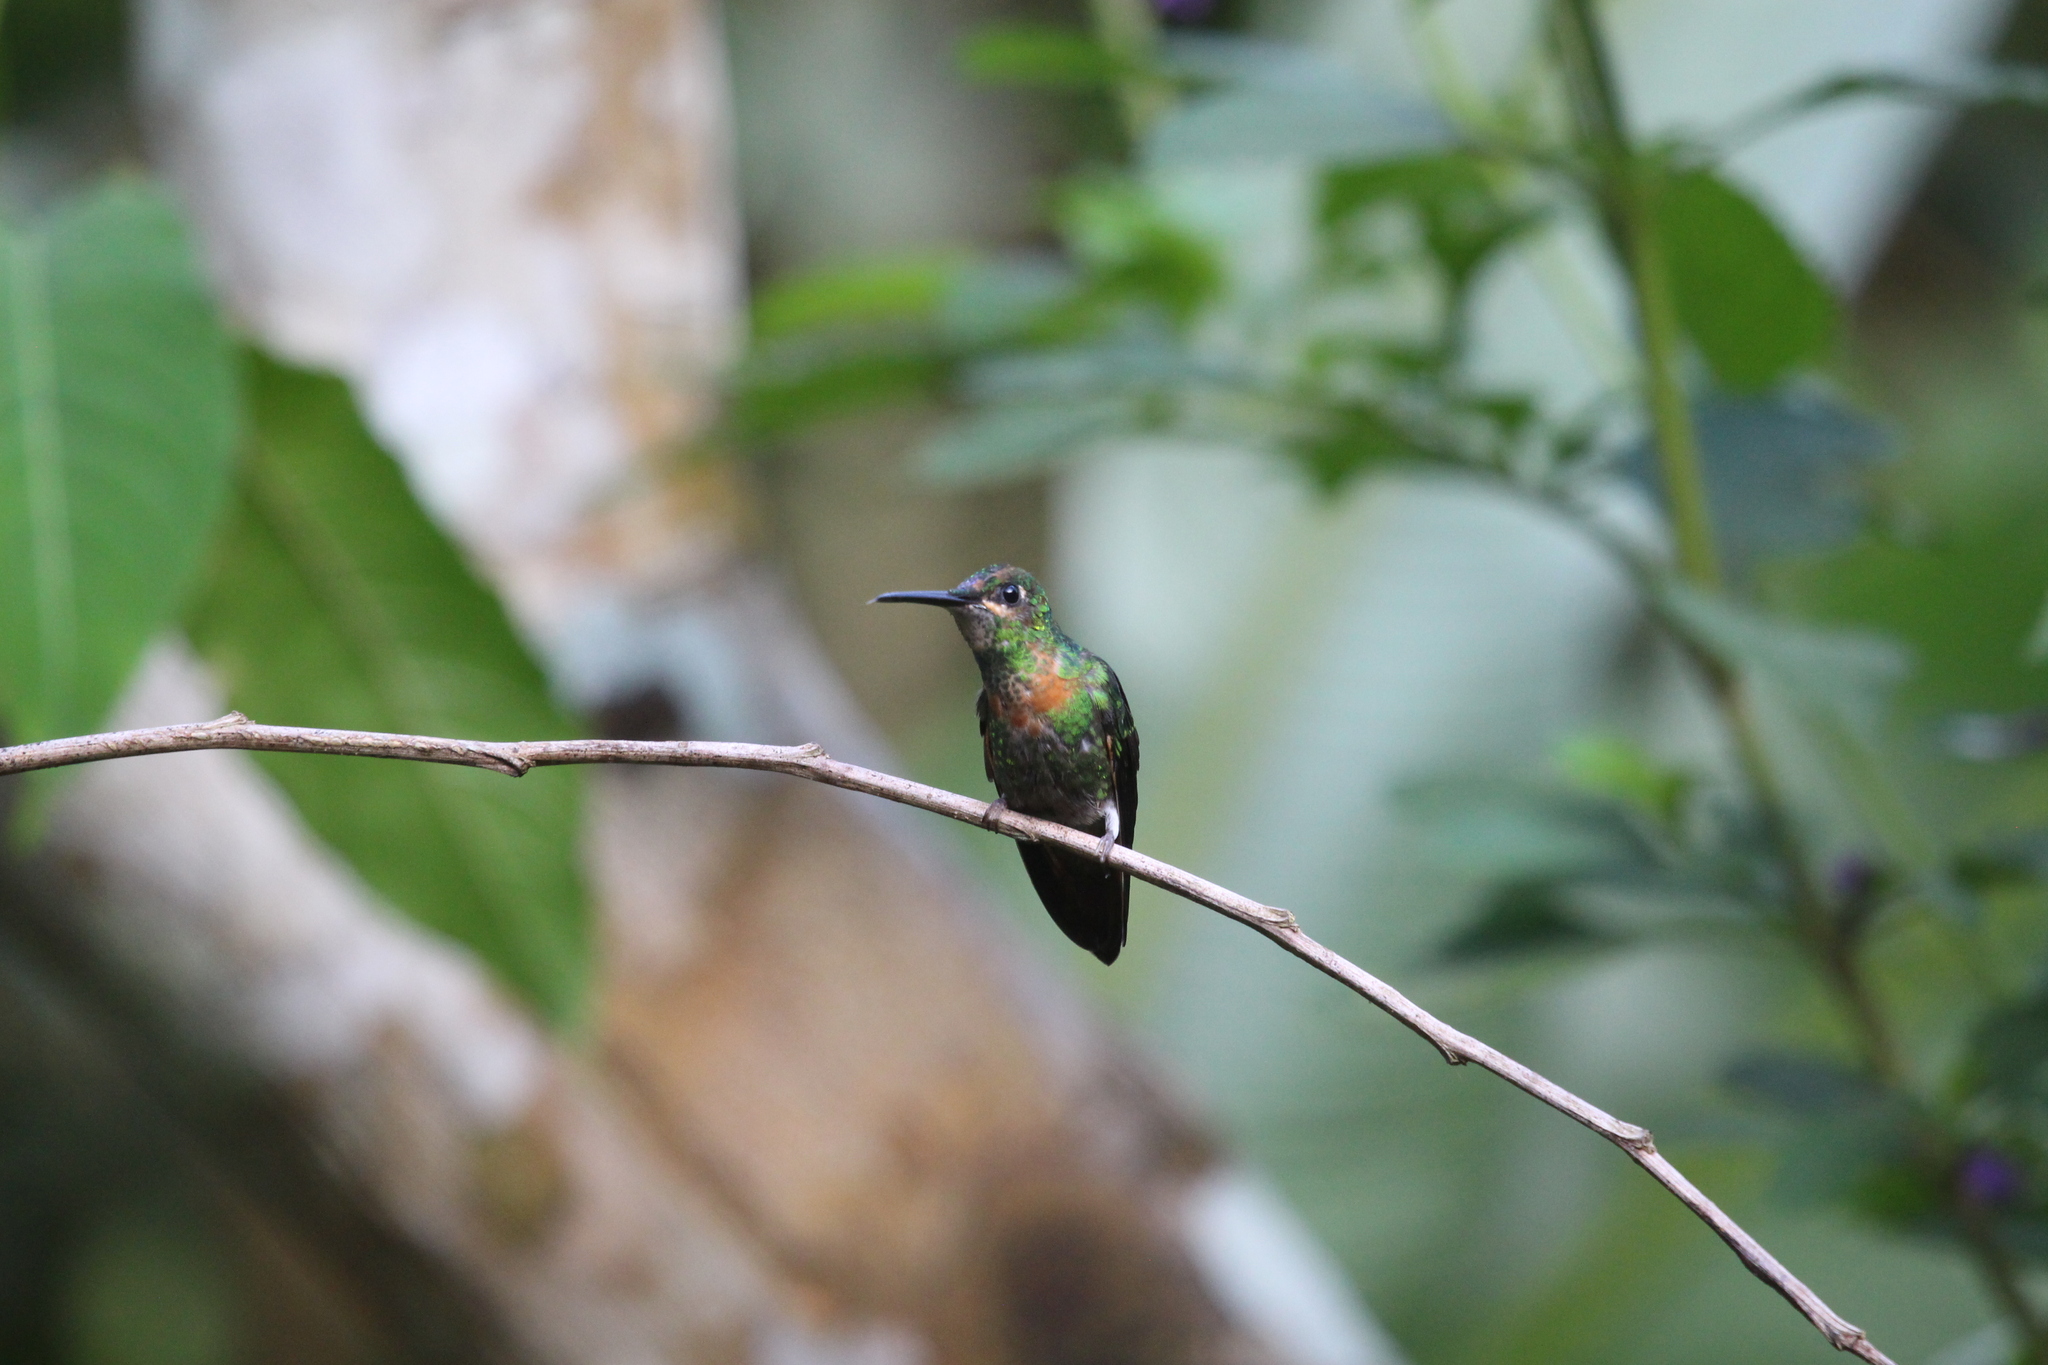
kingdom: Animalia
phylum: Chordata
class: Aves
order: Apodiformes
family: Trochilidae
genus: Heliodoxa
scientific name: Heliodoxa aurescens
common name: Gould's jewelfront
